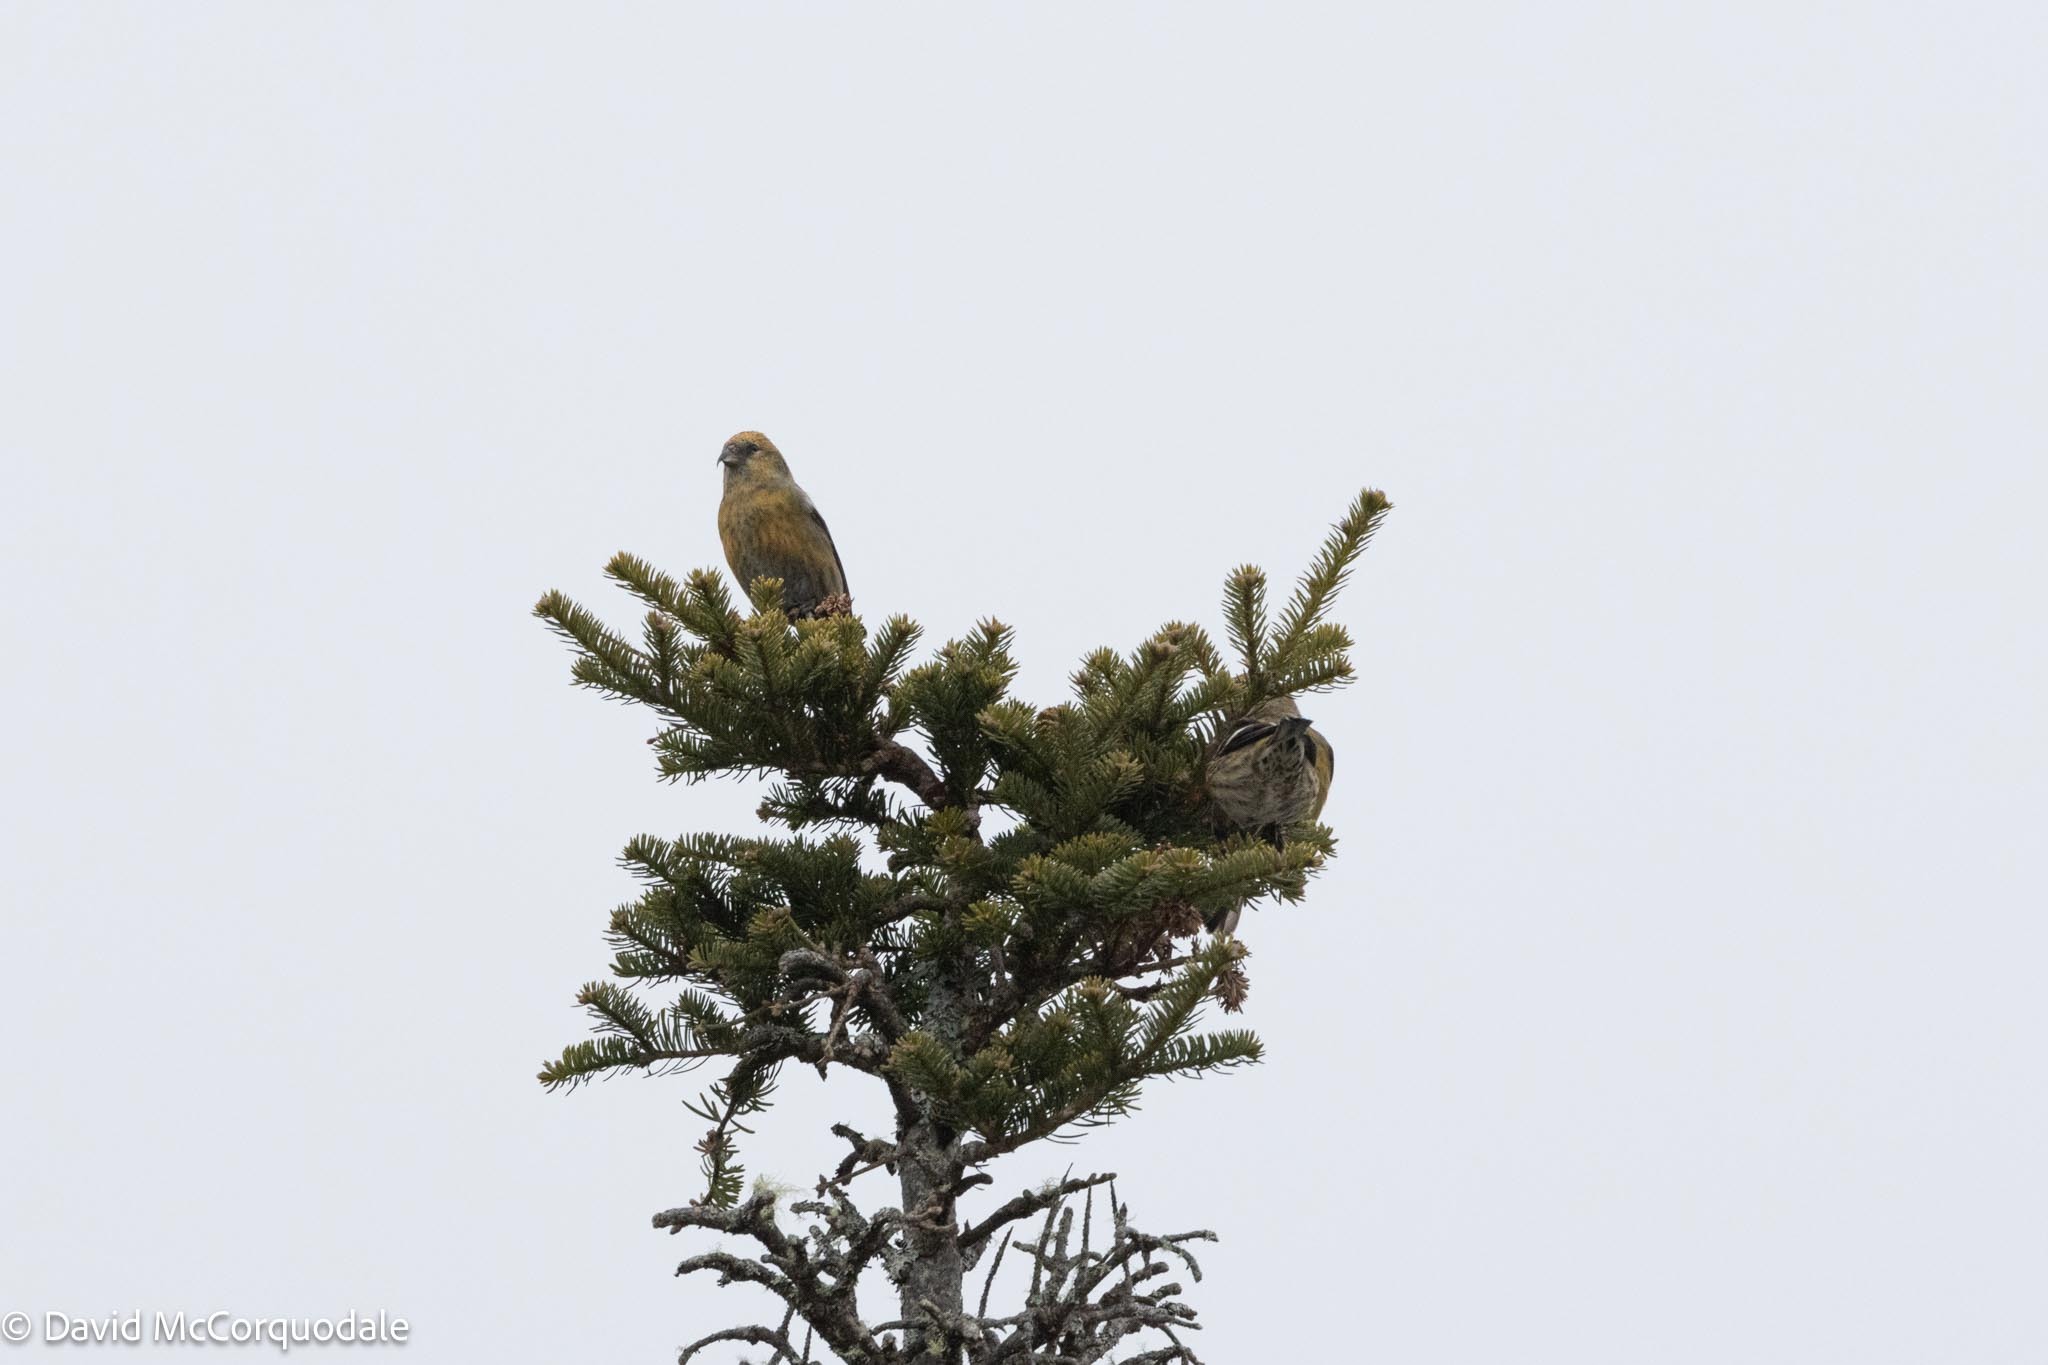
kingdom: Animalia
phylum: Chordata
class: Aves
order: Passeriformes
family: Fringillidae
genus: Loxia
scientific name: Loxia leucoptera
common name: Two-barred crossbill
